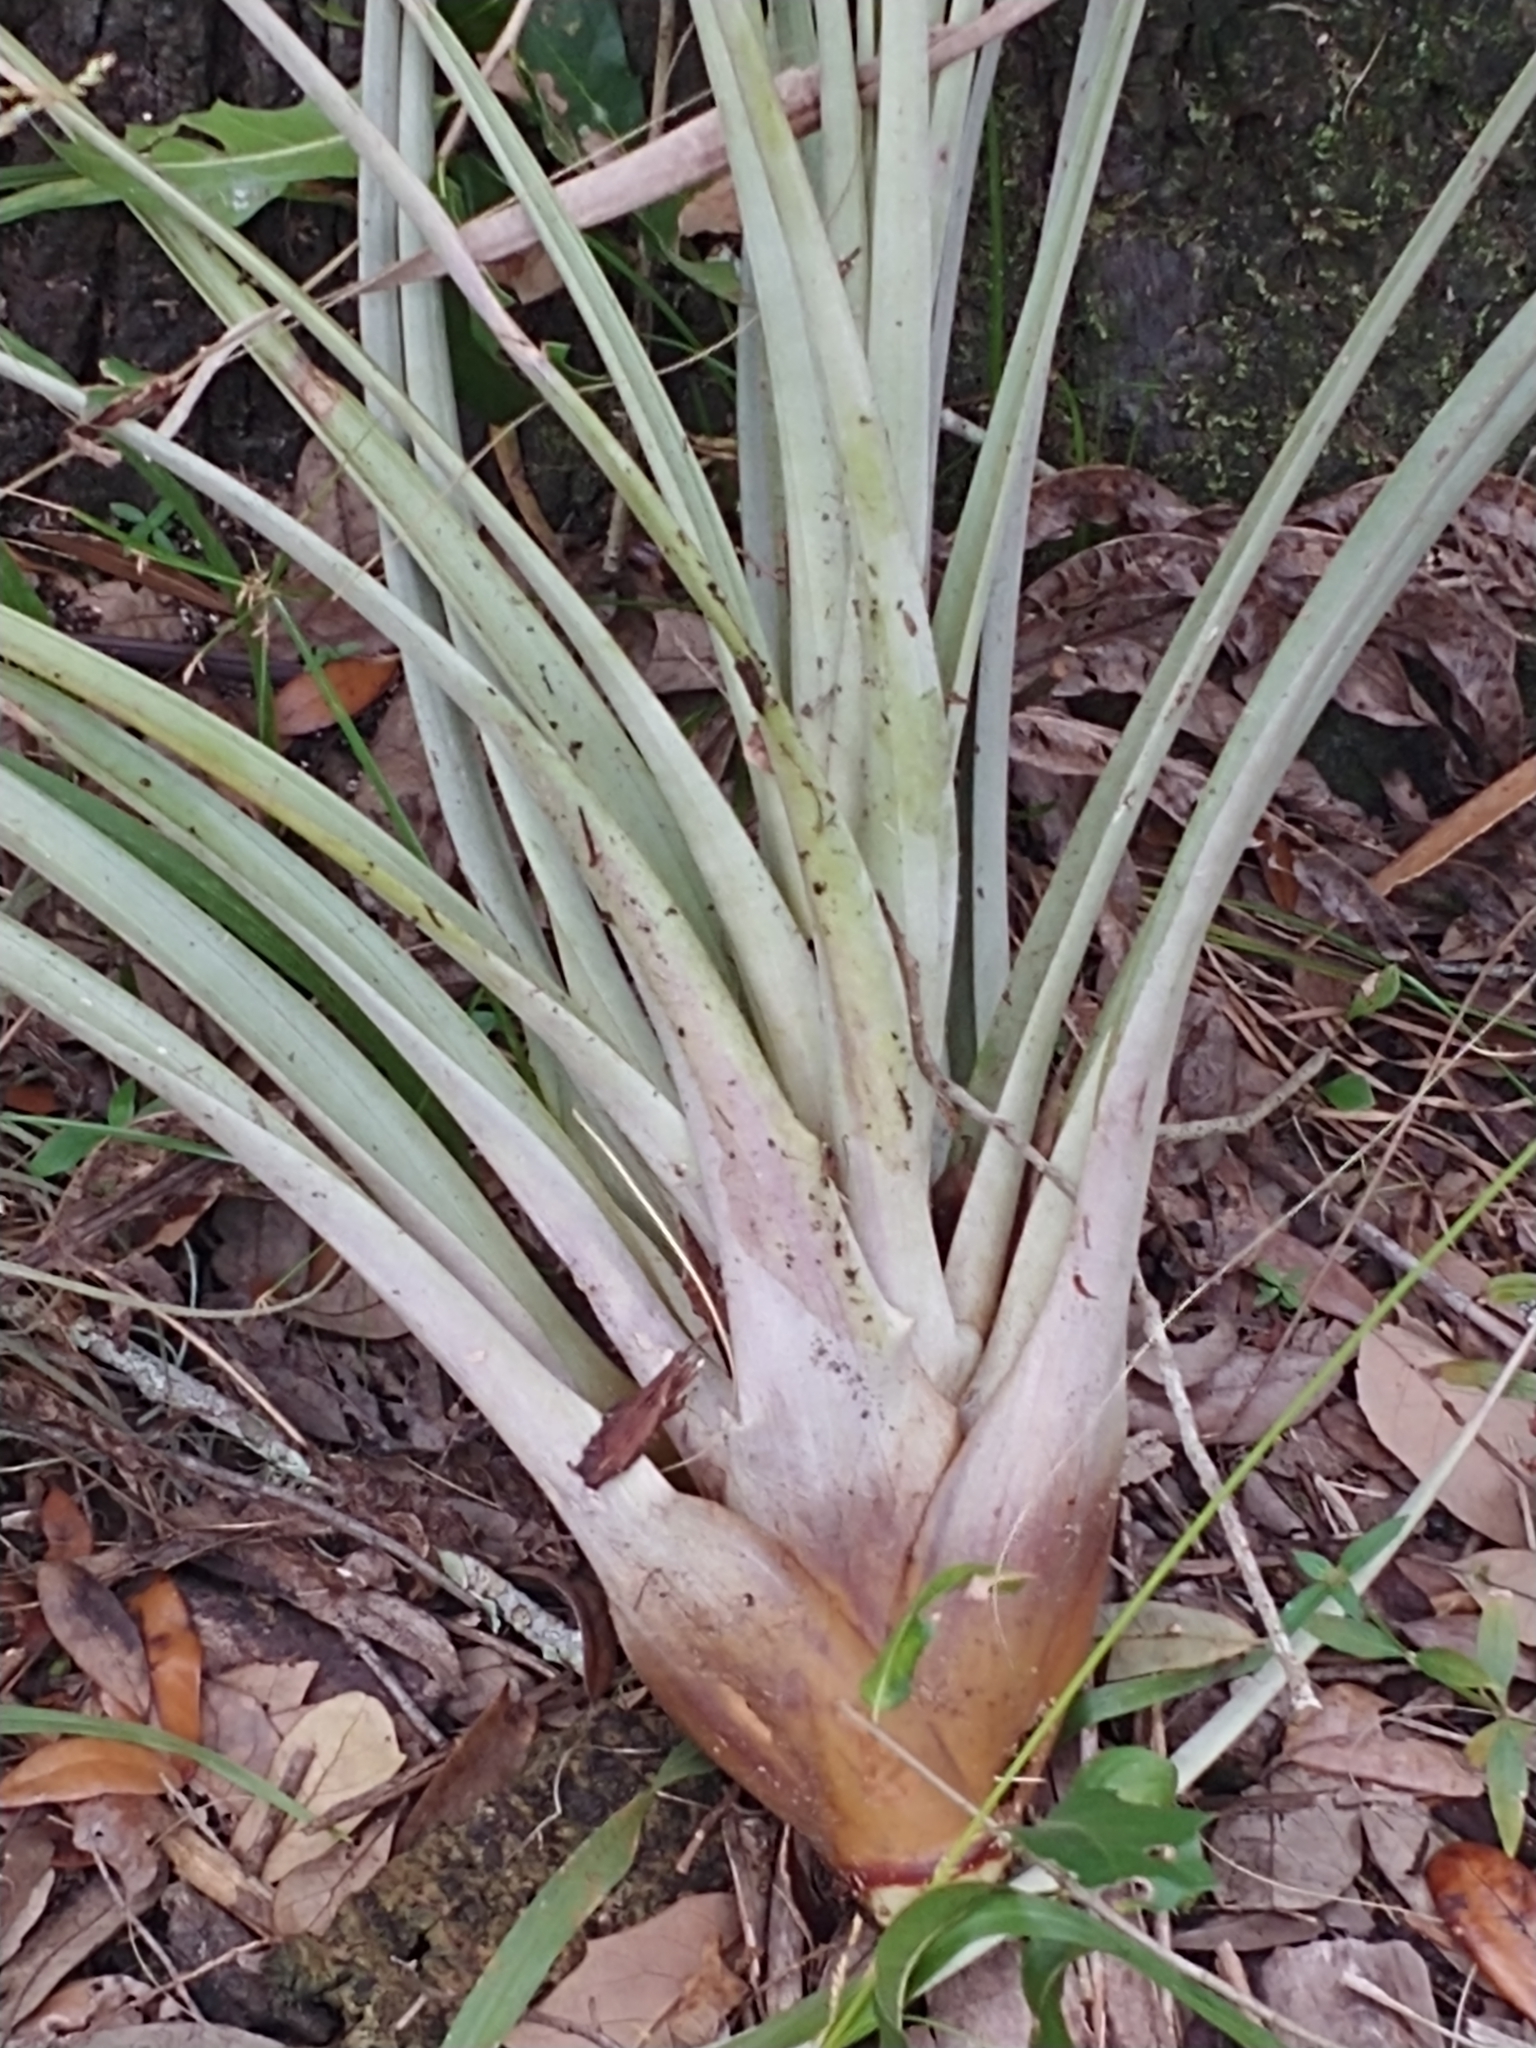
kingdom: Plantae
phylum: Tracheophyta
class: Liliopsida
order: Poales
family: Bromeliaceae
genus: Tillandsia
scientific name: Tillandsia fasciculata
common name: Giant airplant
